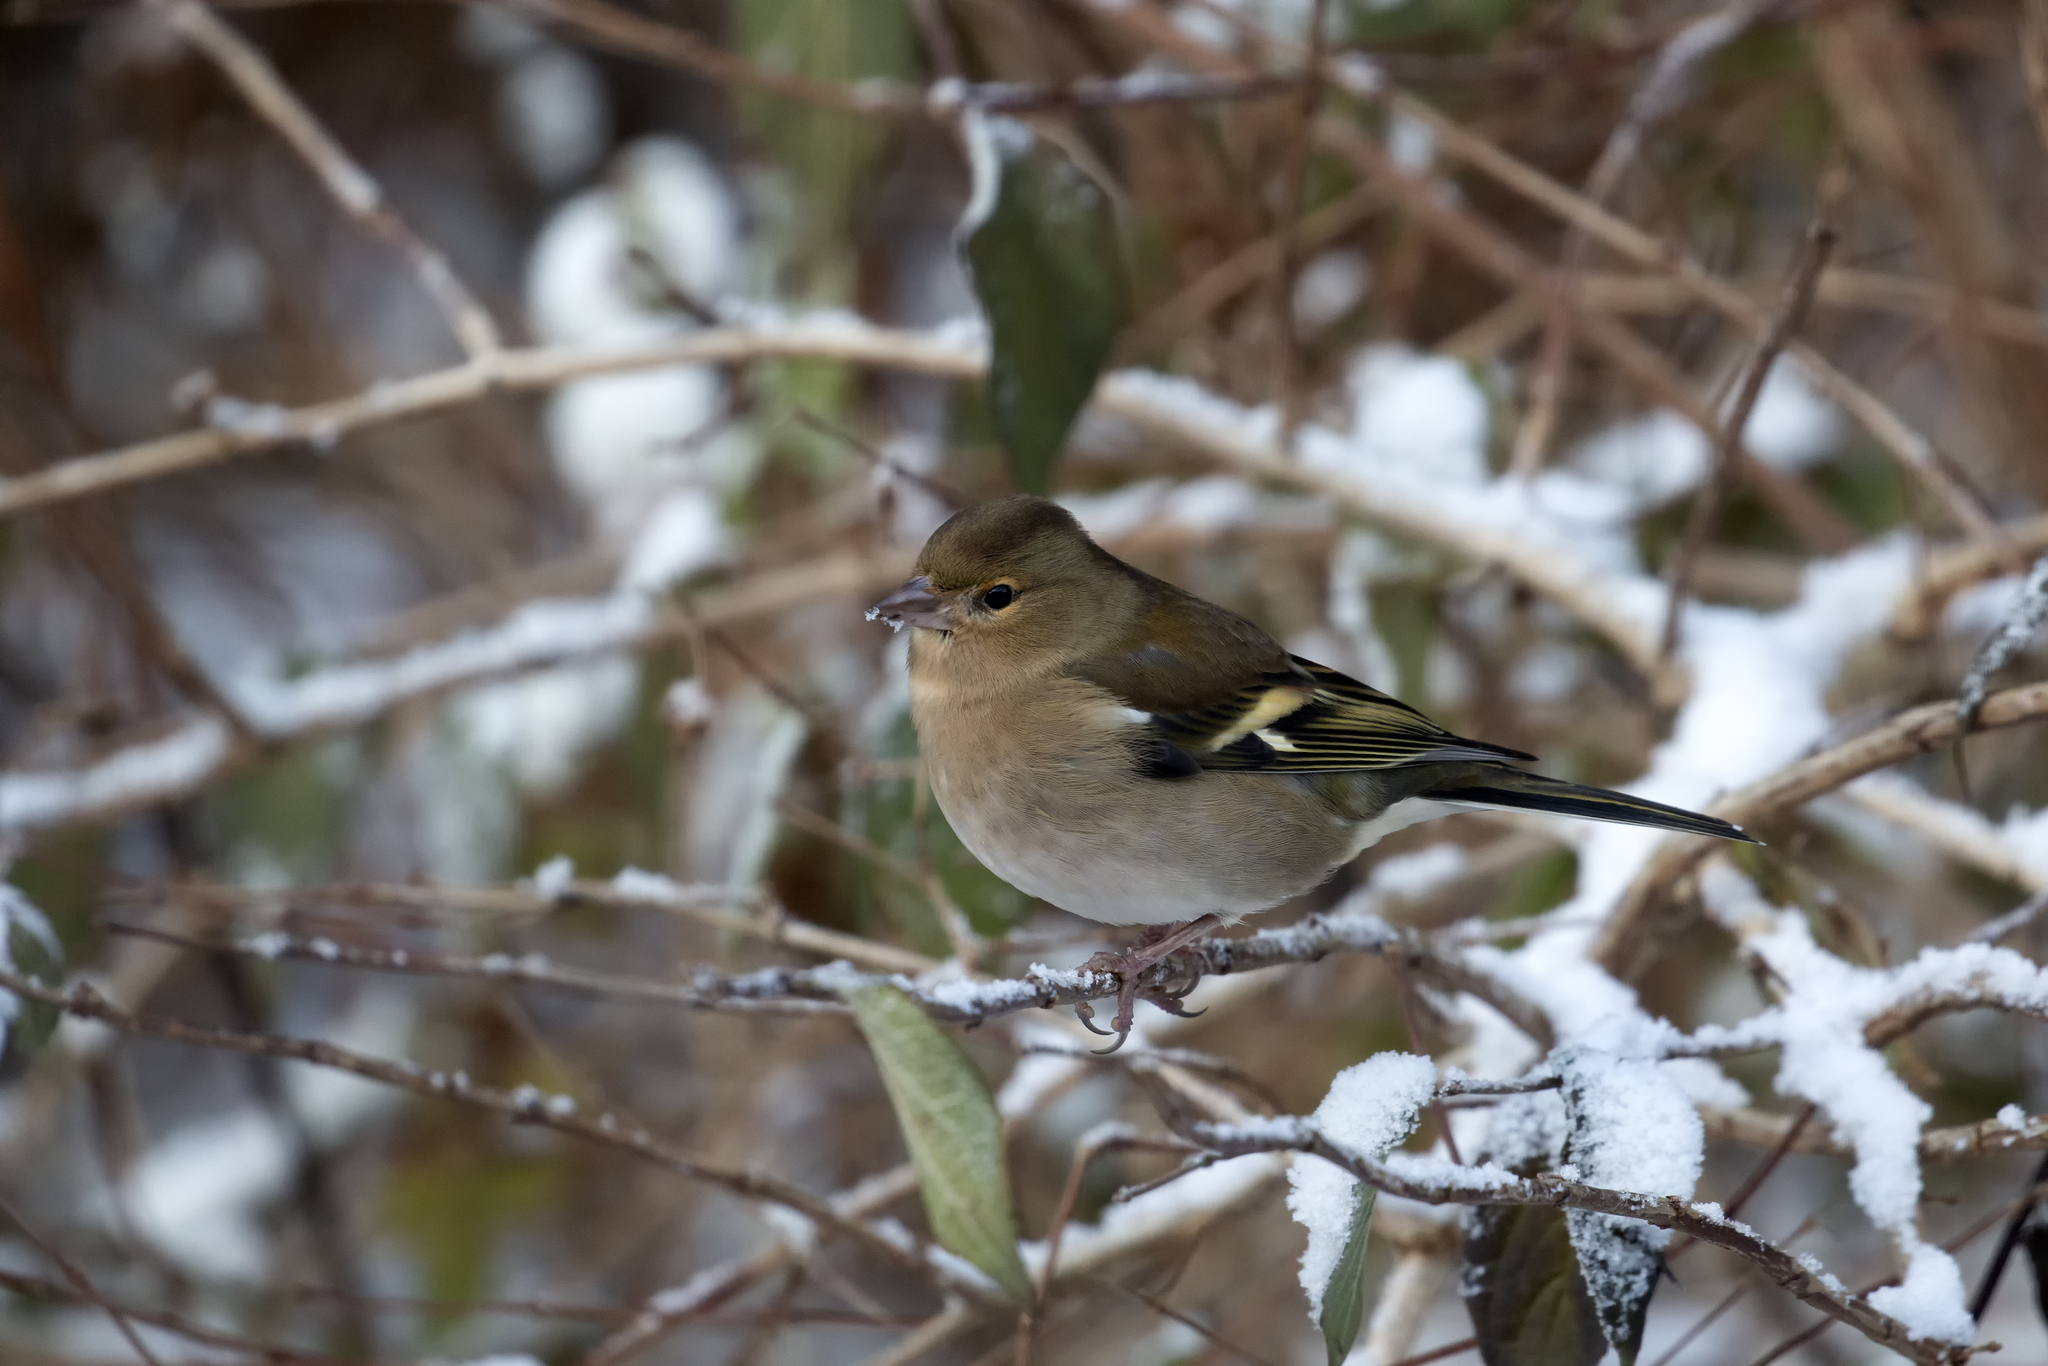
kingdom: Animalia
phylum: Chordata
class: Aves
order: Passeriformes
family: Fringillidae
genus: Fringilla
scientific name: Fringilla coelebs
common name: Common chaffinch
